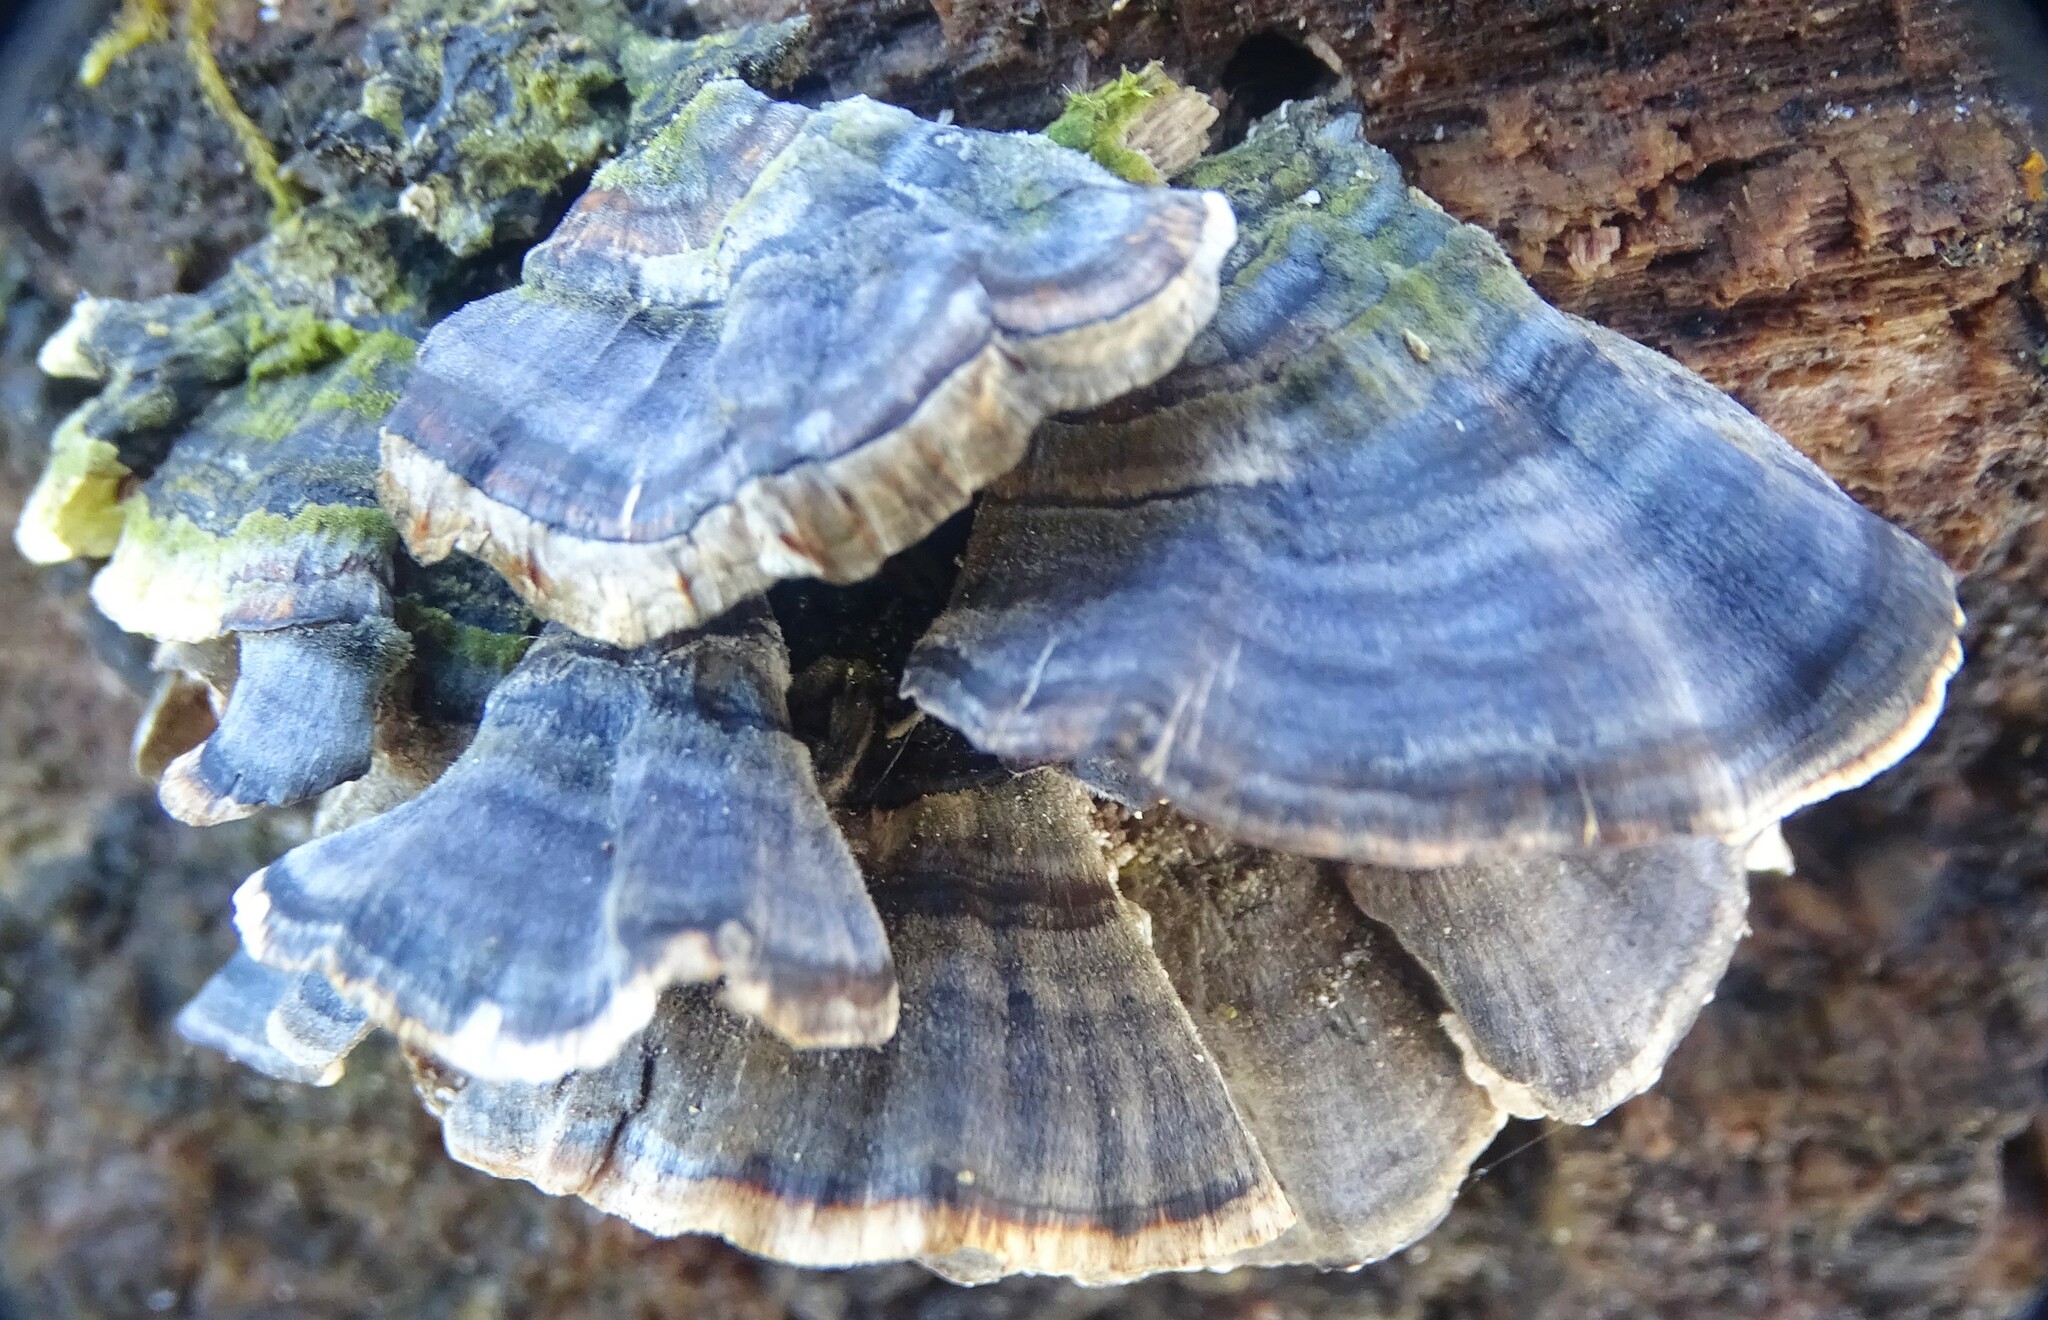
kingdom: Fungi
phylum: Basidiomycota
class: Agaricomycetes
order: Polyporales
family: Polyporaceae
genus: Trametes
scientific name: Trametes versicolor
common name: Turkeytail
